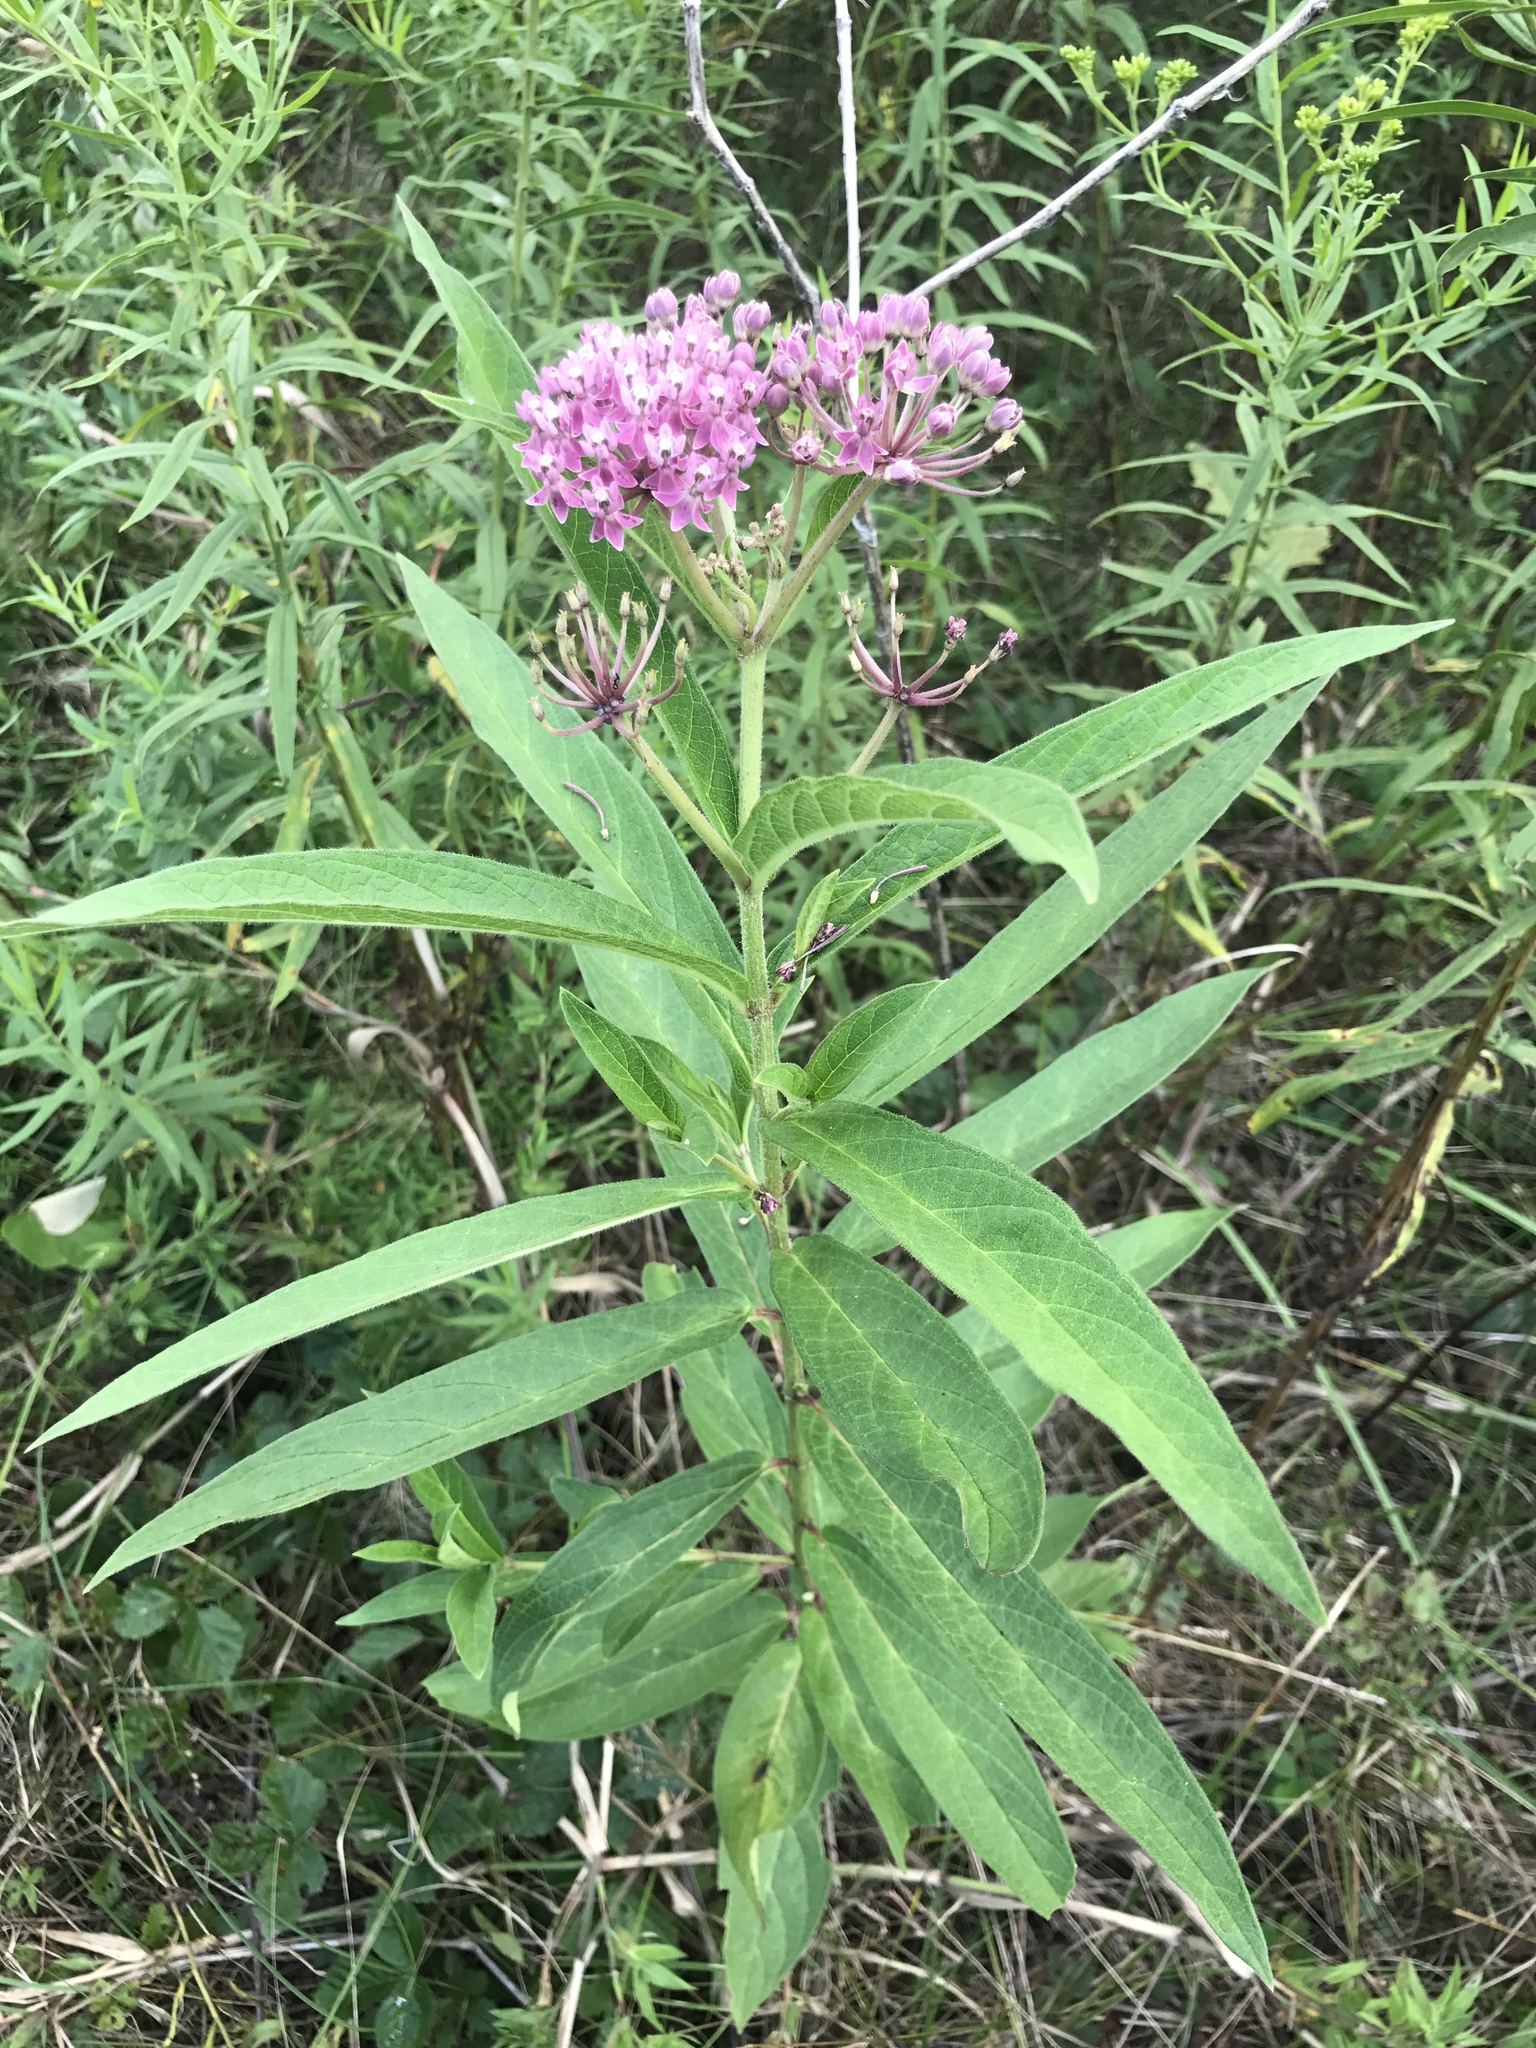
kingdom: Plantae
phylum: Tracheophyta
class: Magnoliopsida
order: Gentianales
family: Apocynaceae
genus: Asclepias
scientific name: Asclepias incarnata
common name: Swamp milkweed
